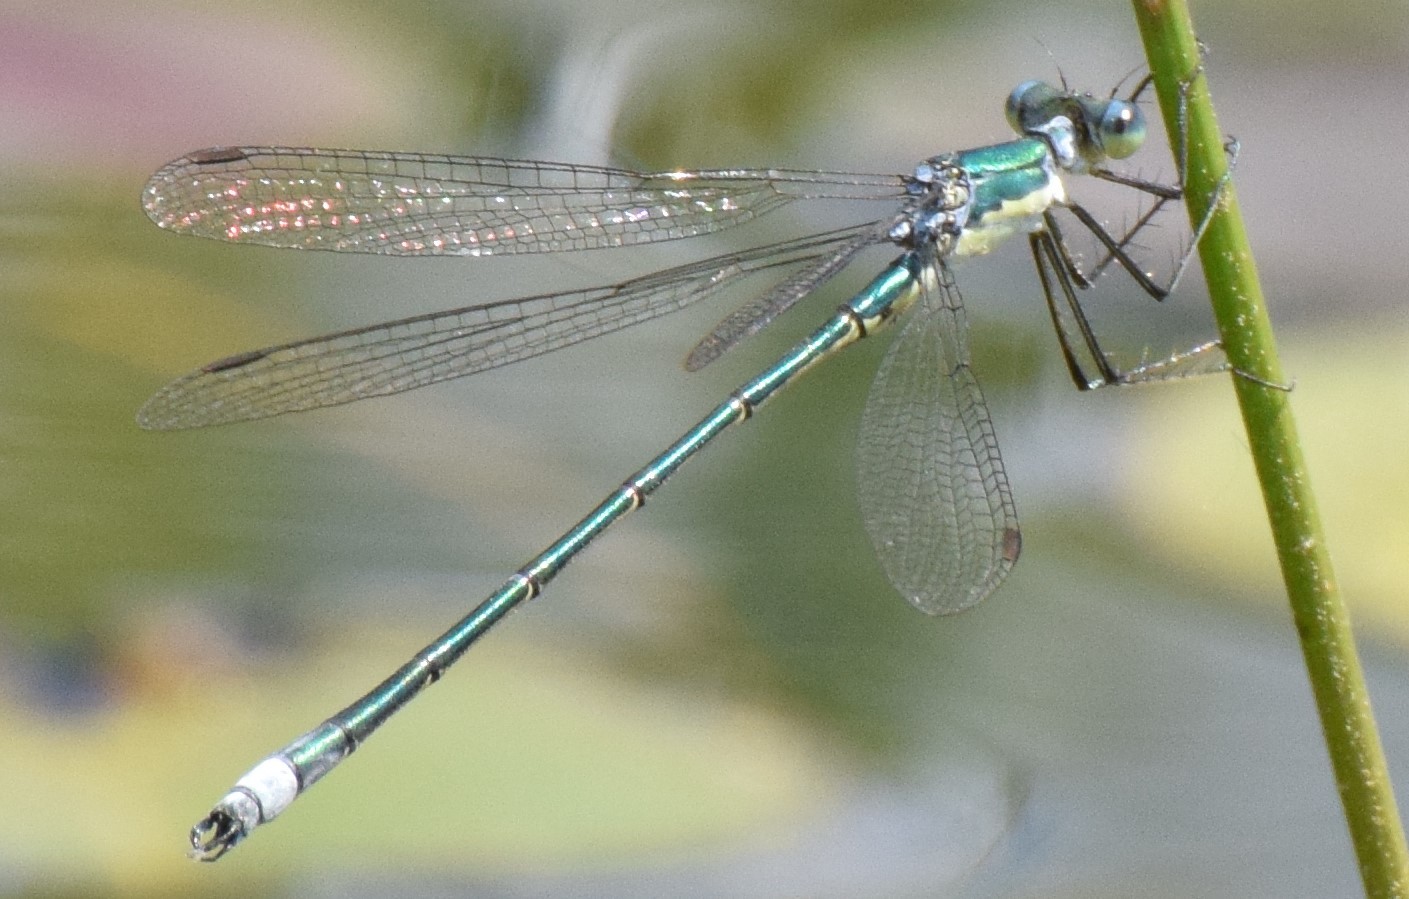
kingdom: Animalia
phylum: Arthropoda
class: Insecta
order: Odonata
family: Lestidae
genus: Lestes
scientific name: Lestes inaequalis
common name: Elegant spreadwing
